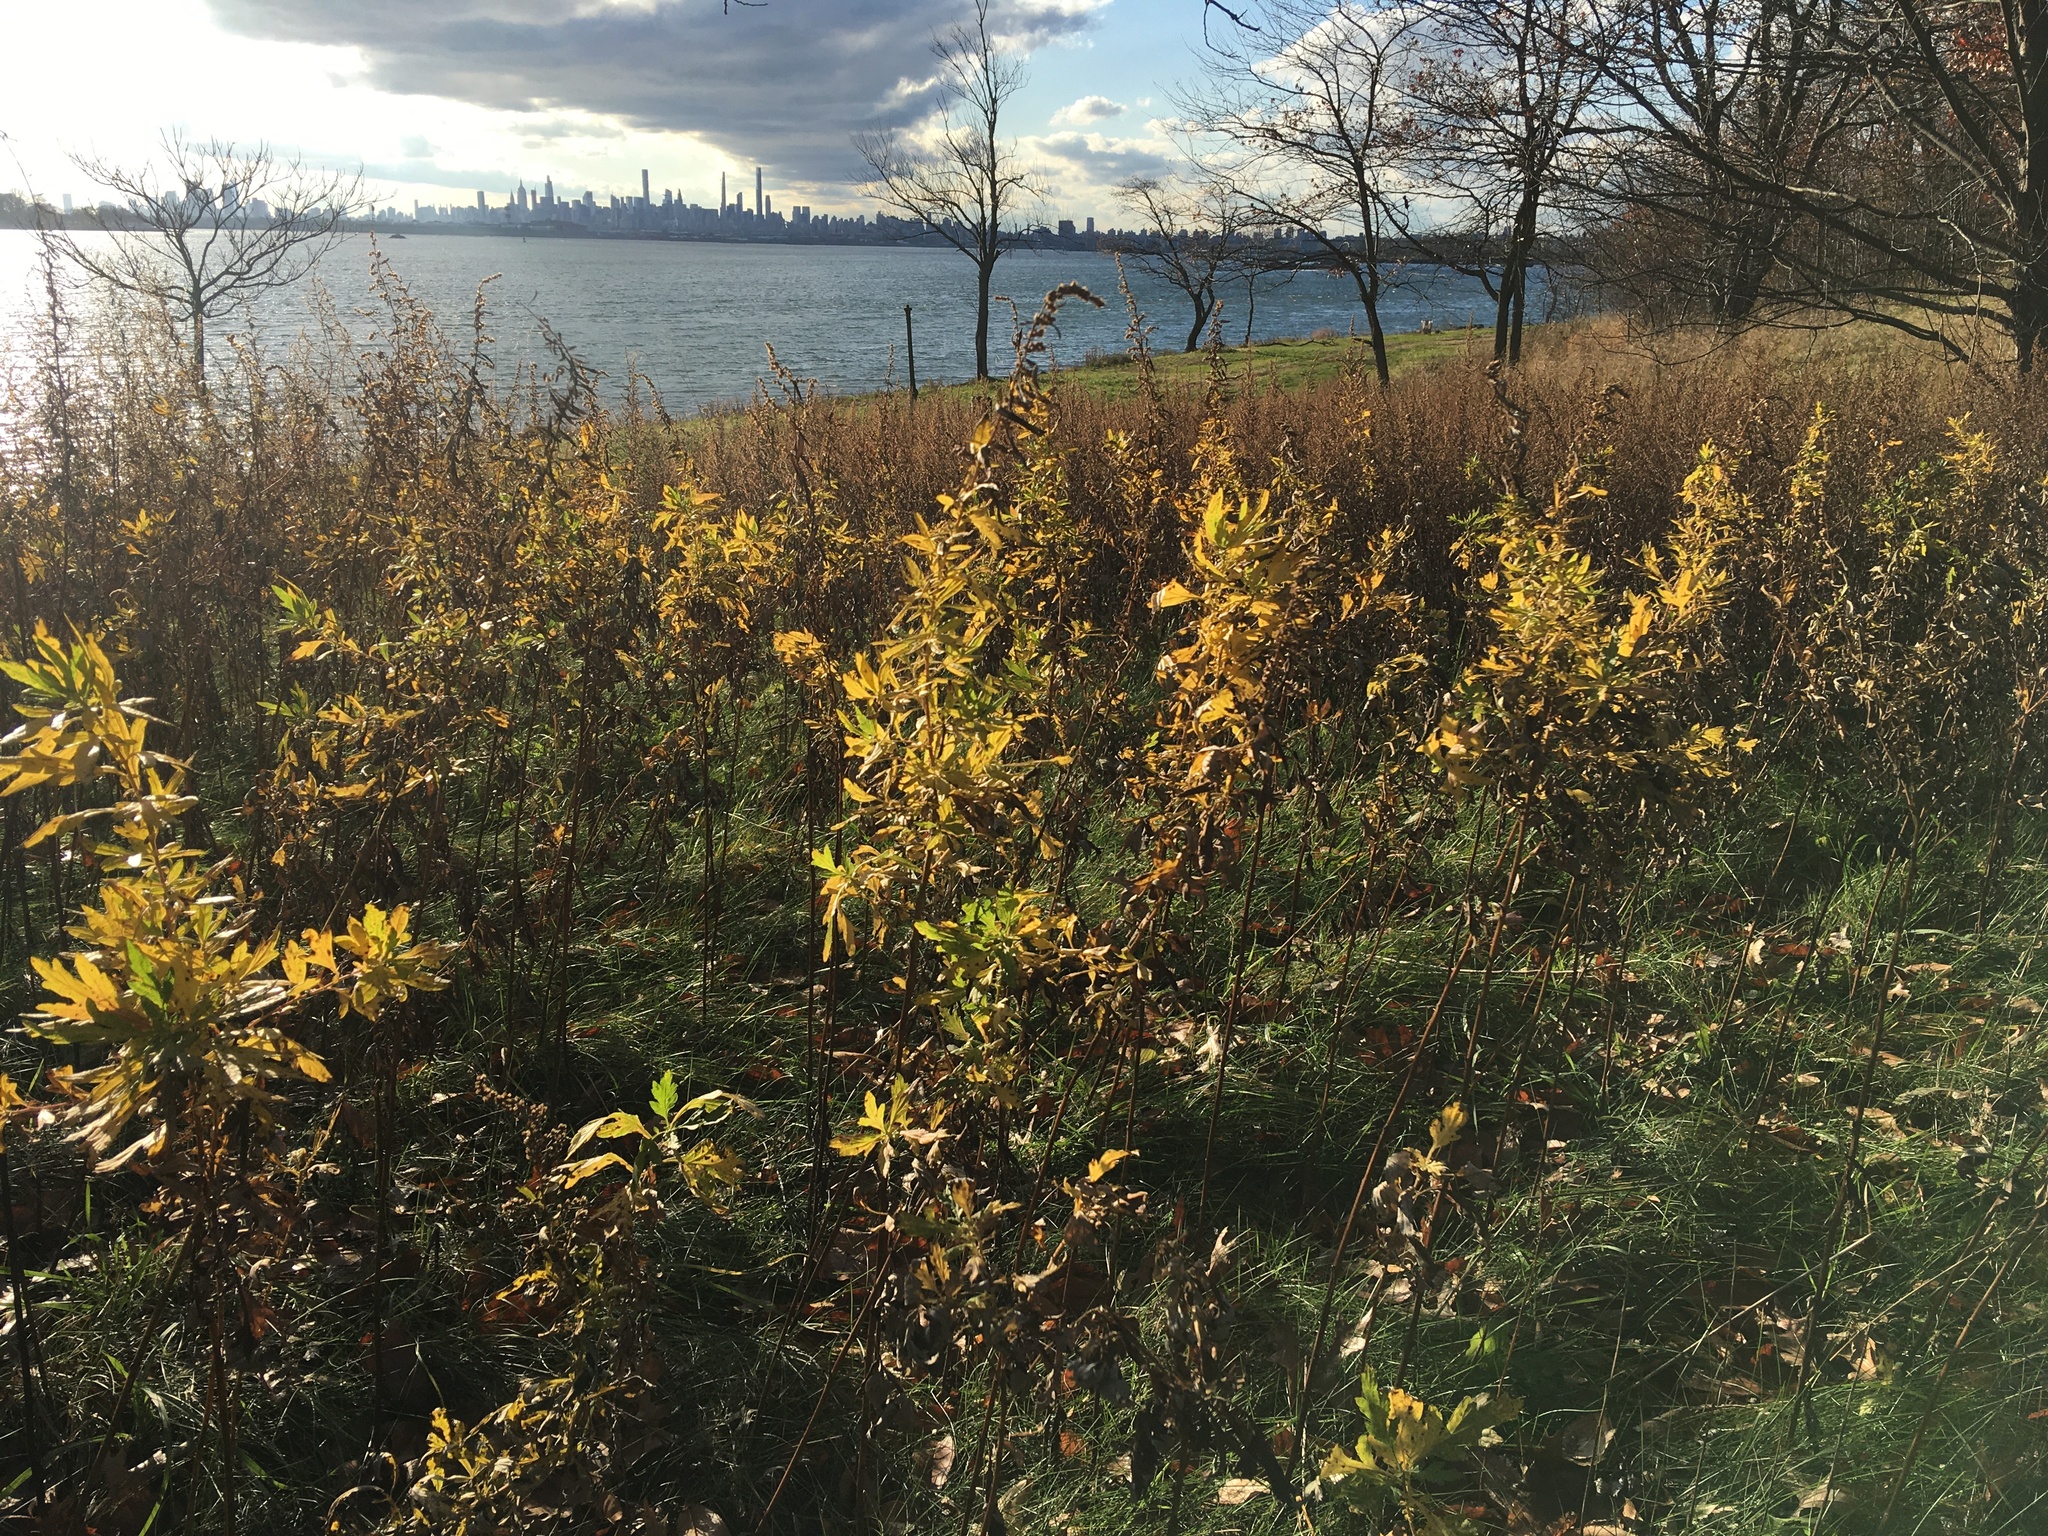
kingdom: Plantae
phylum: Tracheophyta
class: Magnoliopsida
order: Asterales
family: Asteraceae
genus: Artemisia
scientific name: Artemisia vulgaris
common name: Mugwort
